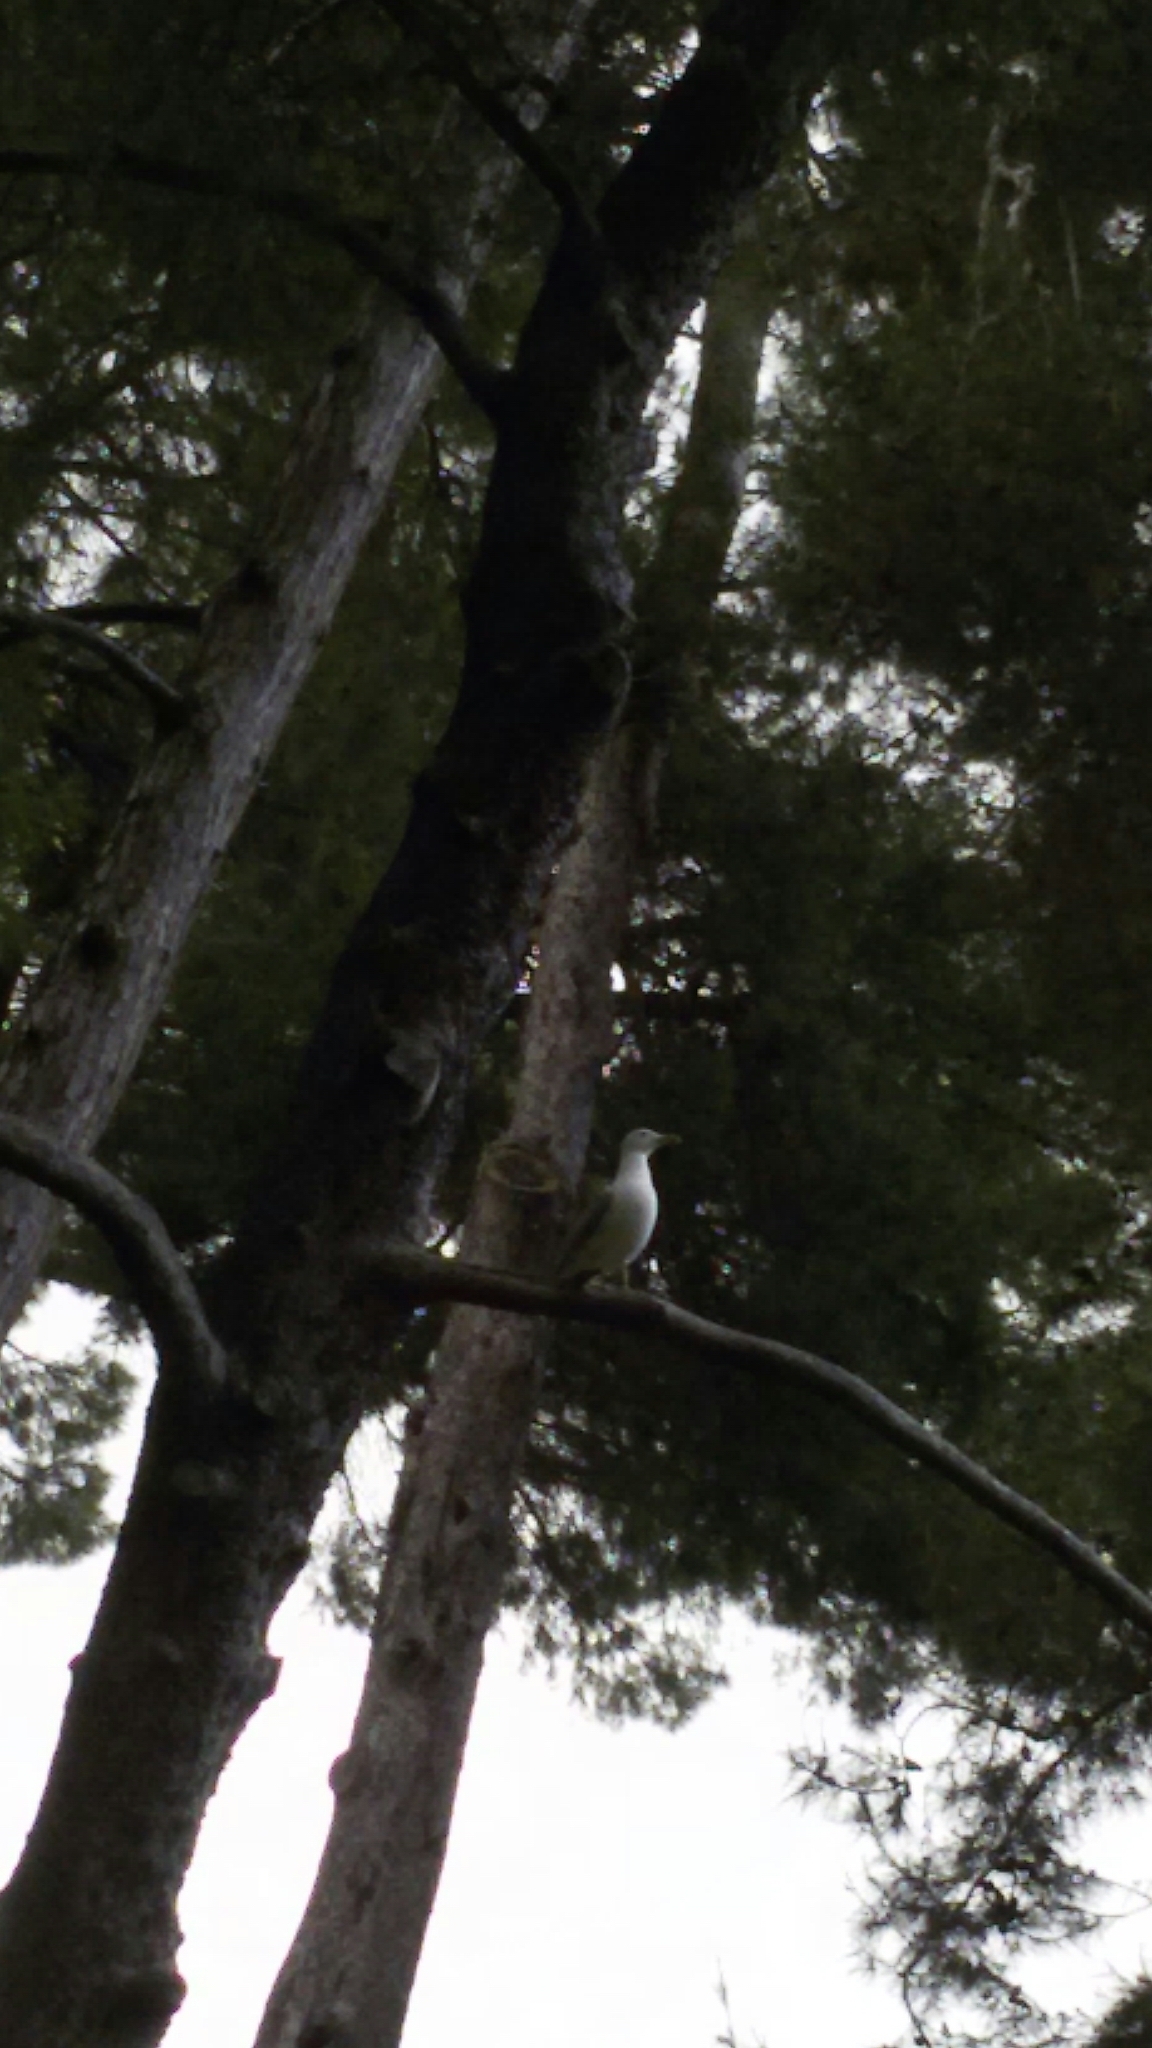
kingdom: Animalia
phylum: Chordata
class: Aves
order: Charadriiformes
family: Laridae
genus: Larus
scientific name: Larus michahellis
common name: Yellow-legged gull
